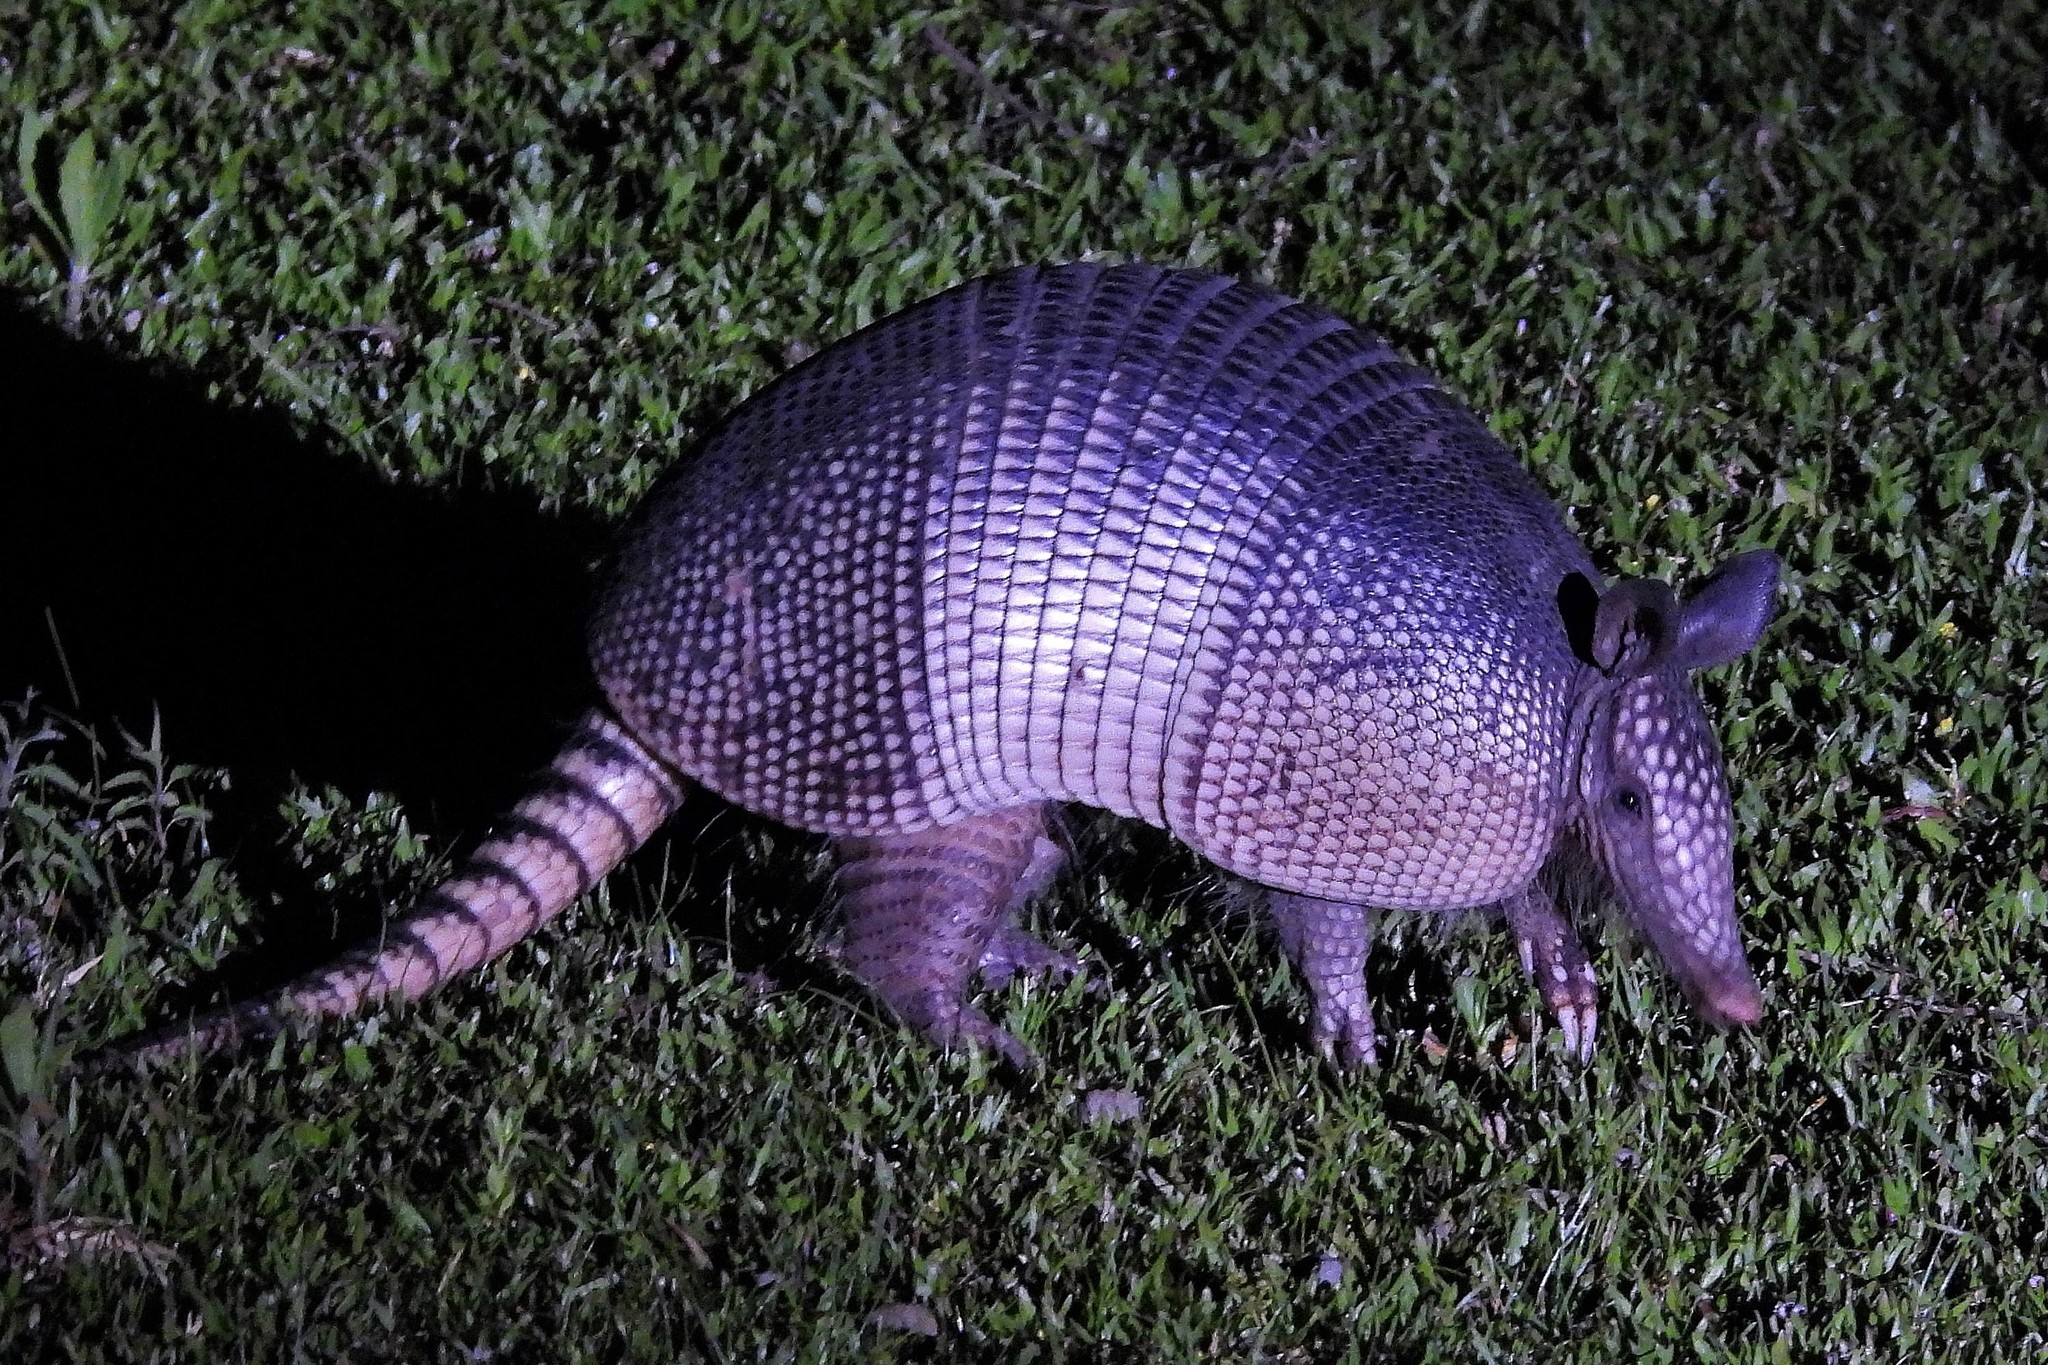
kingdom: Animalia
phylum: Chordata
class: Mammalia
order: Cingulata
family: Dasypodidae
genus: Dasypus
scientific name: Dasypus novemcinctus
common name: Nine-banded armadillo
